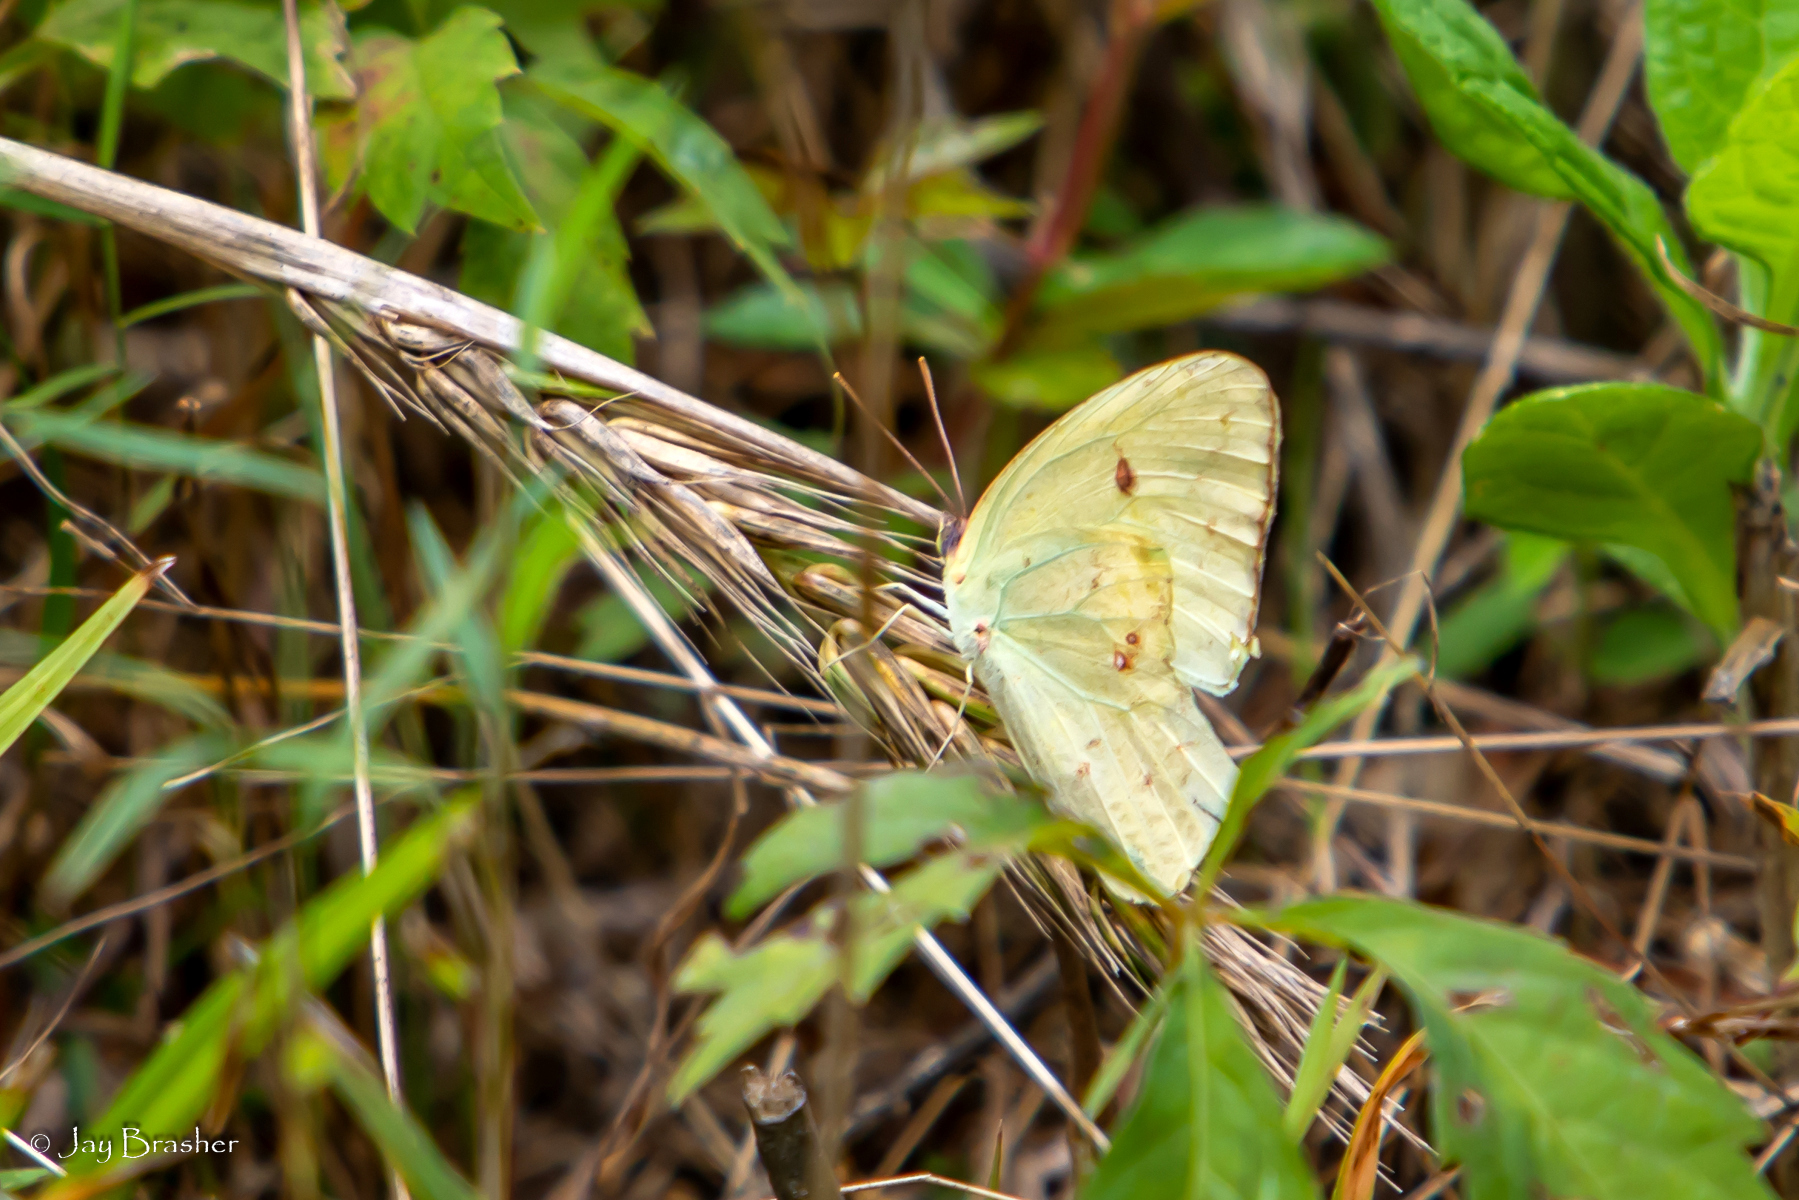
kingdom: Animalia
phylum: Arthropoda
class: Insecta
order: Lepidoptera
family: Pieridae
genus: Phoebis
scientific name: Phoebis sennae
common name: Cloudless sulphur
